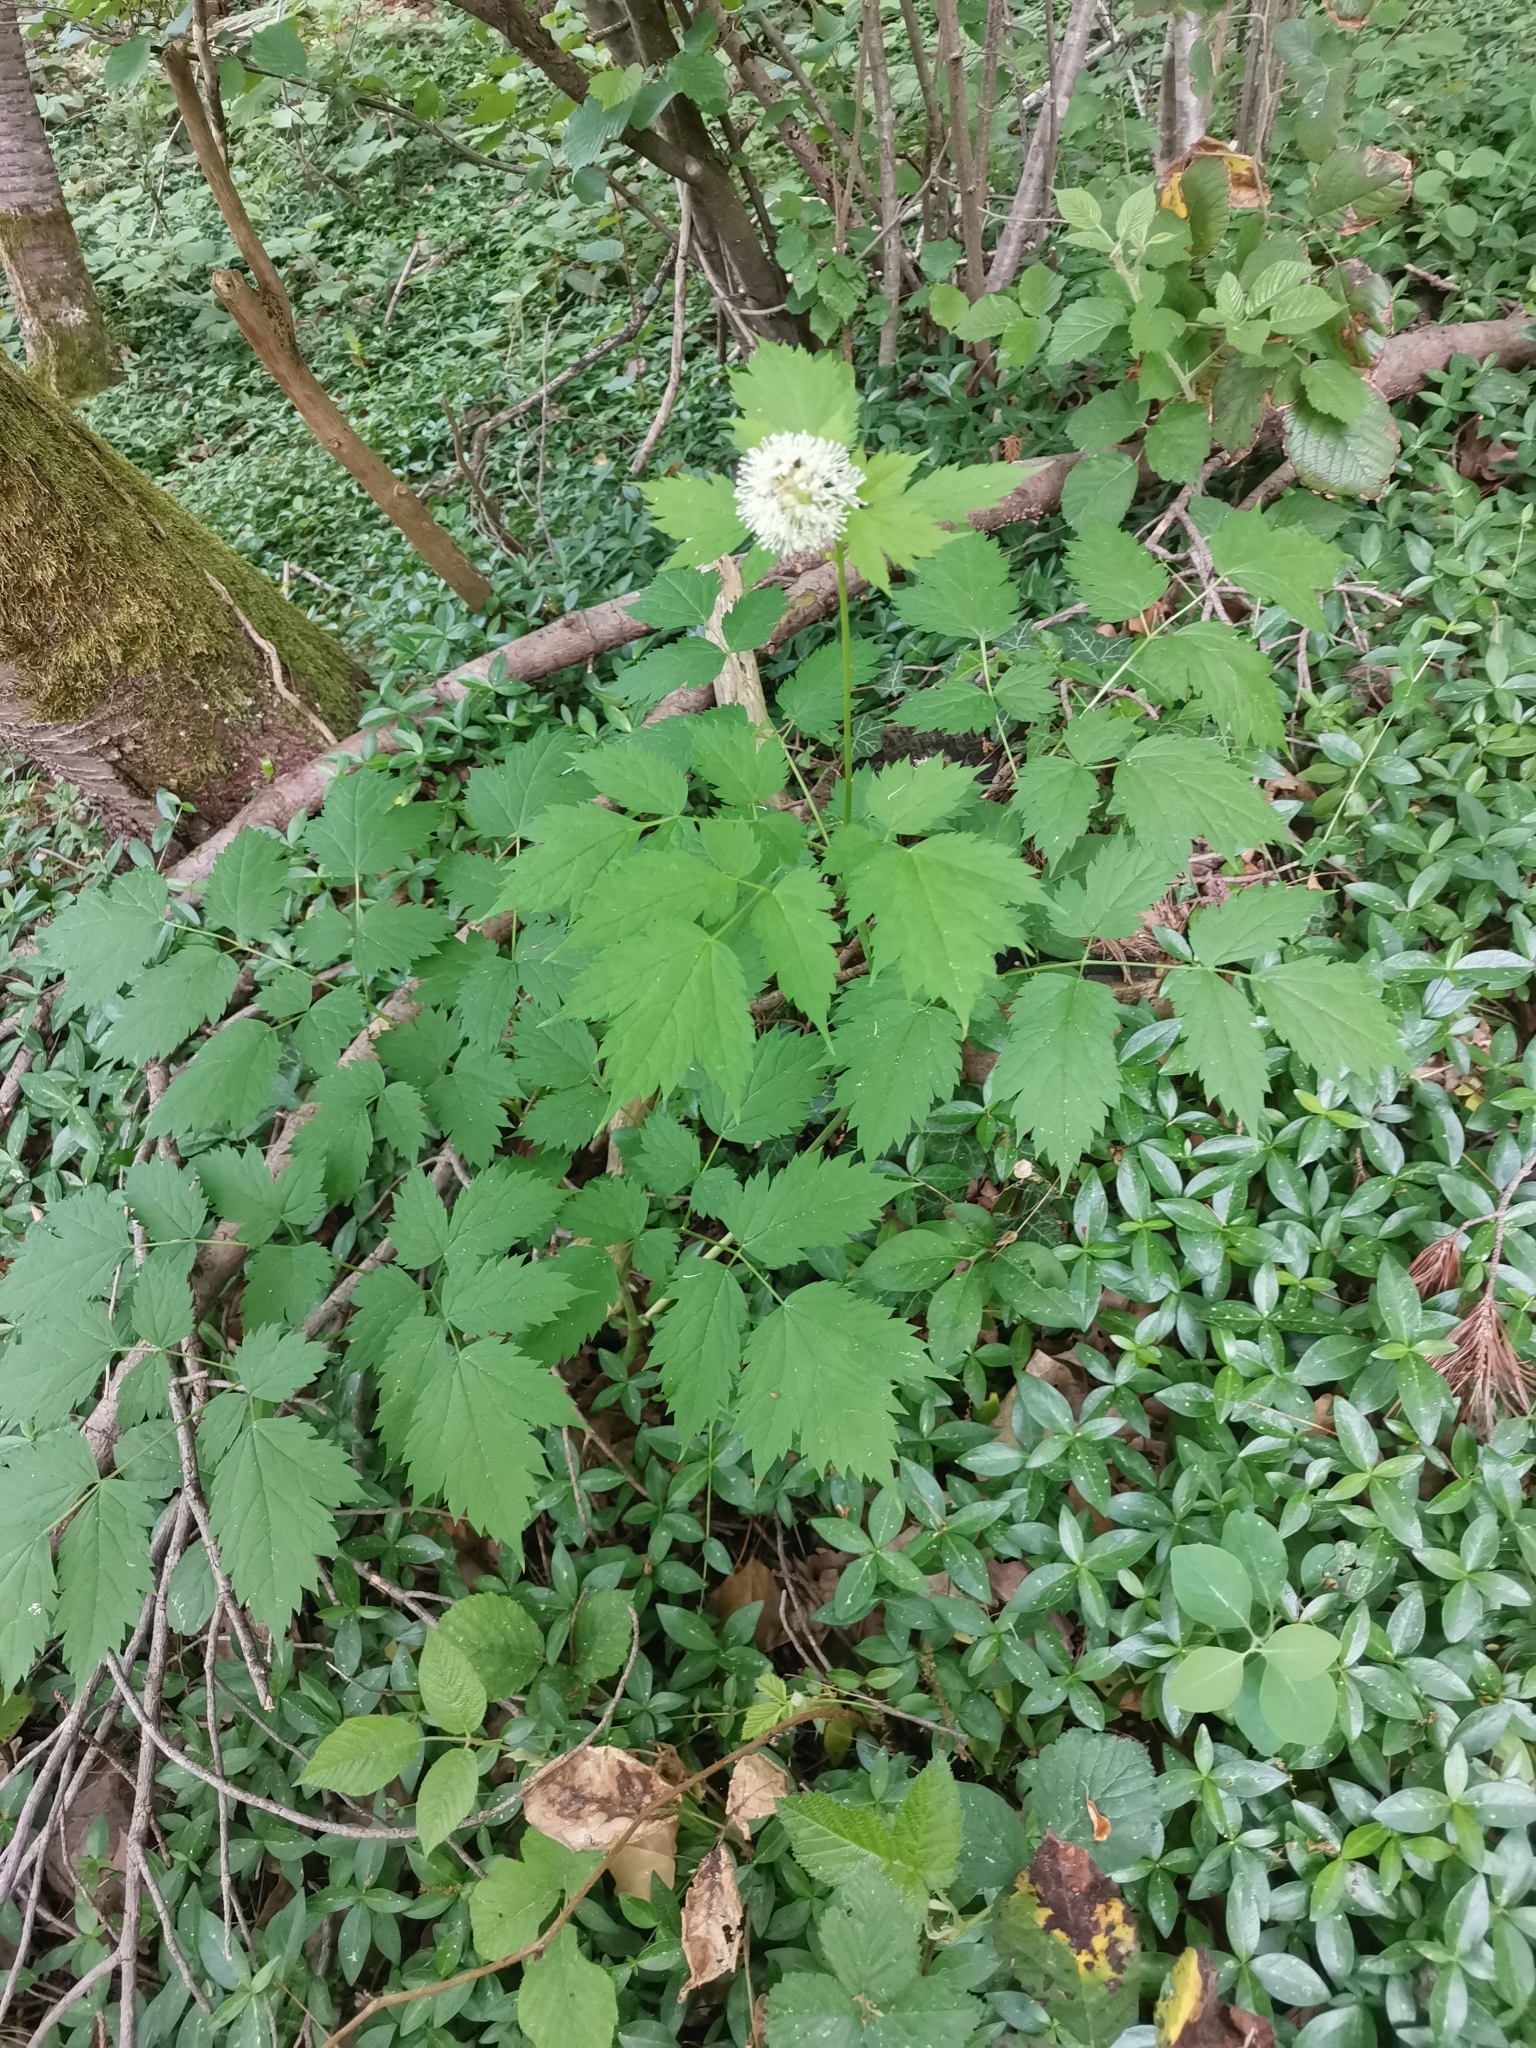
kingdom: Plantae
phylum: Tracheophyta
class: Magnoliopsida
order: Ranunculales
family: Ranunculaceae
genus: Actaea
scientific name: Actaea spicata
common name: Baneberry
